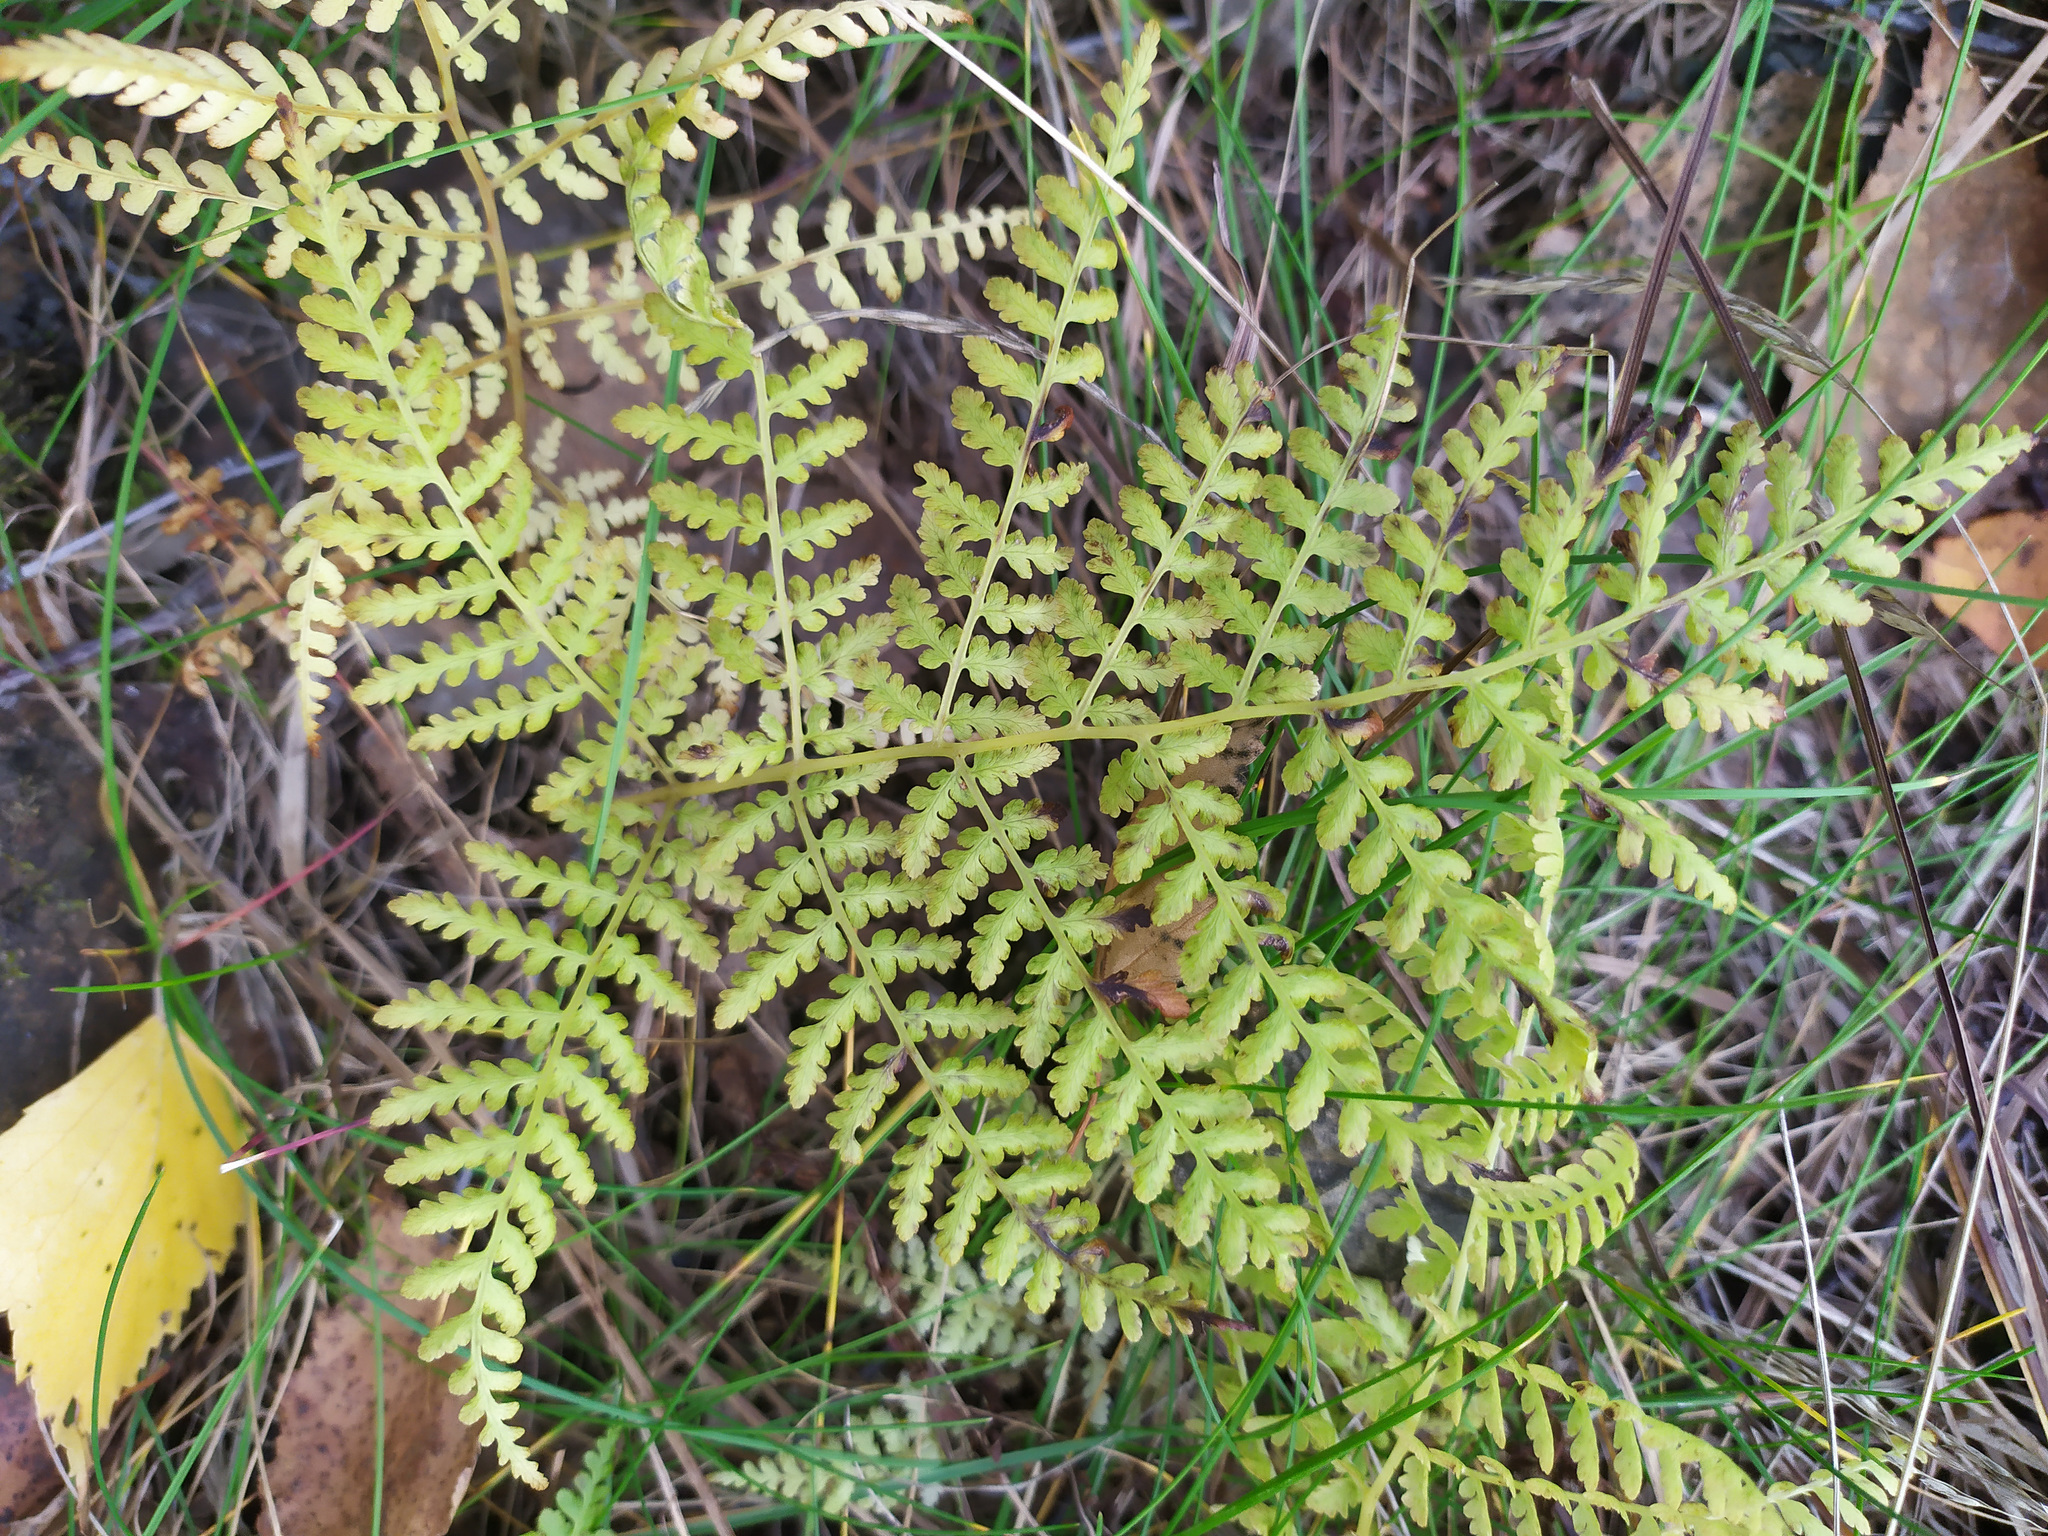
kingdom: Plantae
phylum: Tracheophyta
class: Polypodiopsida
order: Polypodiales
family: Athyriaceae
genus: Diplazium
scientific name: Diplazium sibiricum
